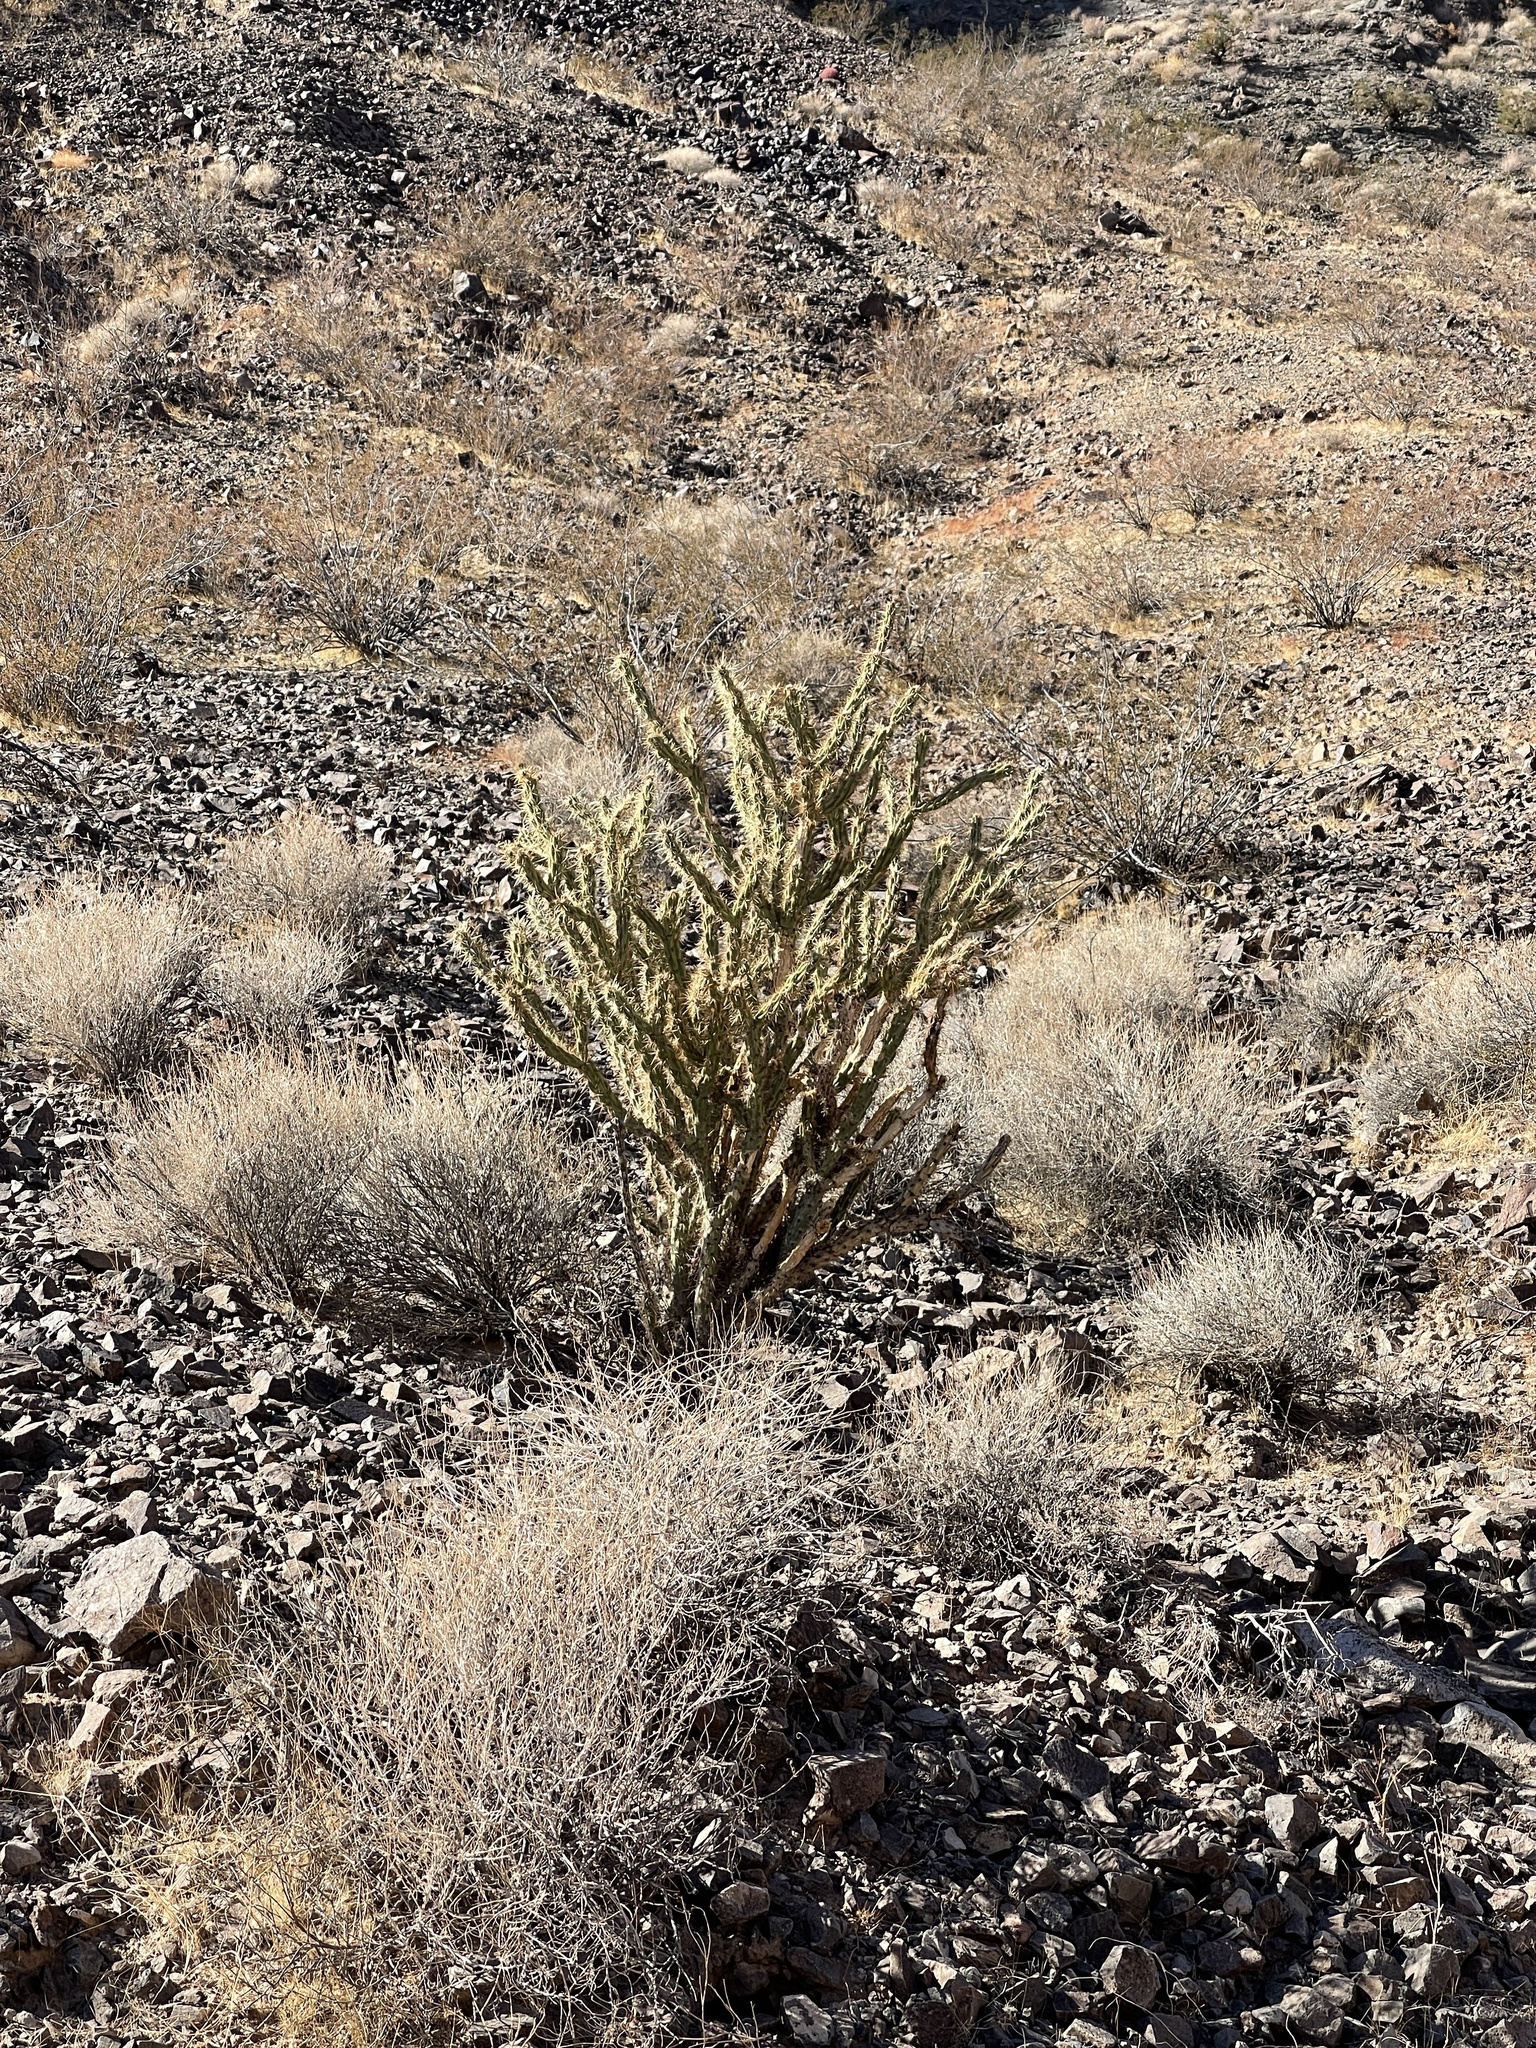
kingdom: Plantae
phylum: Tracheophyta
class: Magnoliopsida
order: Caryophyllales
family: Cactaceae
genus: Cylindropuntia
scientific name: Cylindropuntia acanthocarpa
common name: Buckhorn cholla
